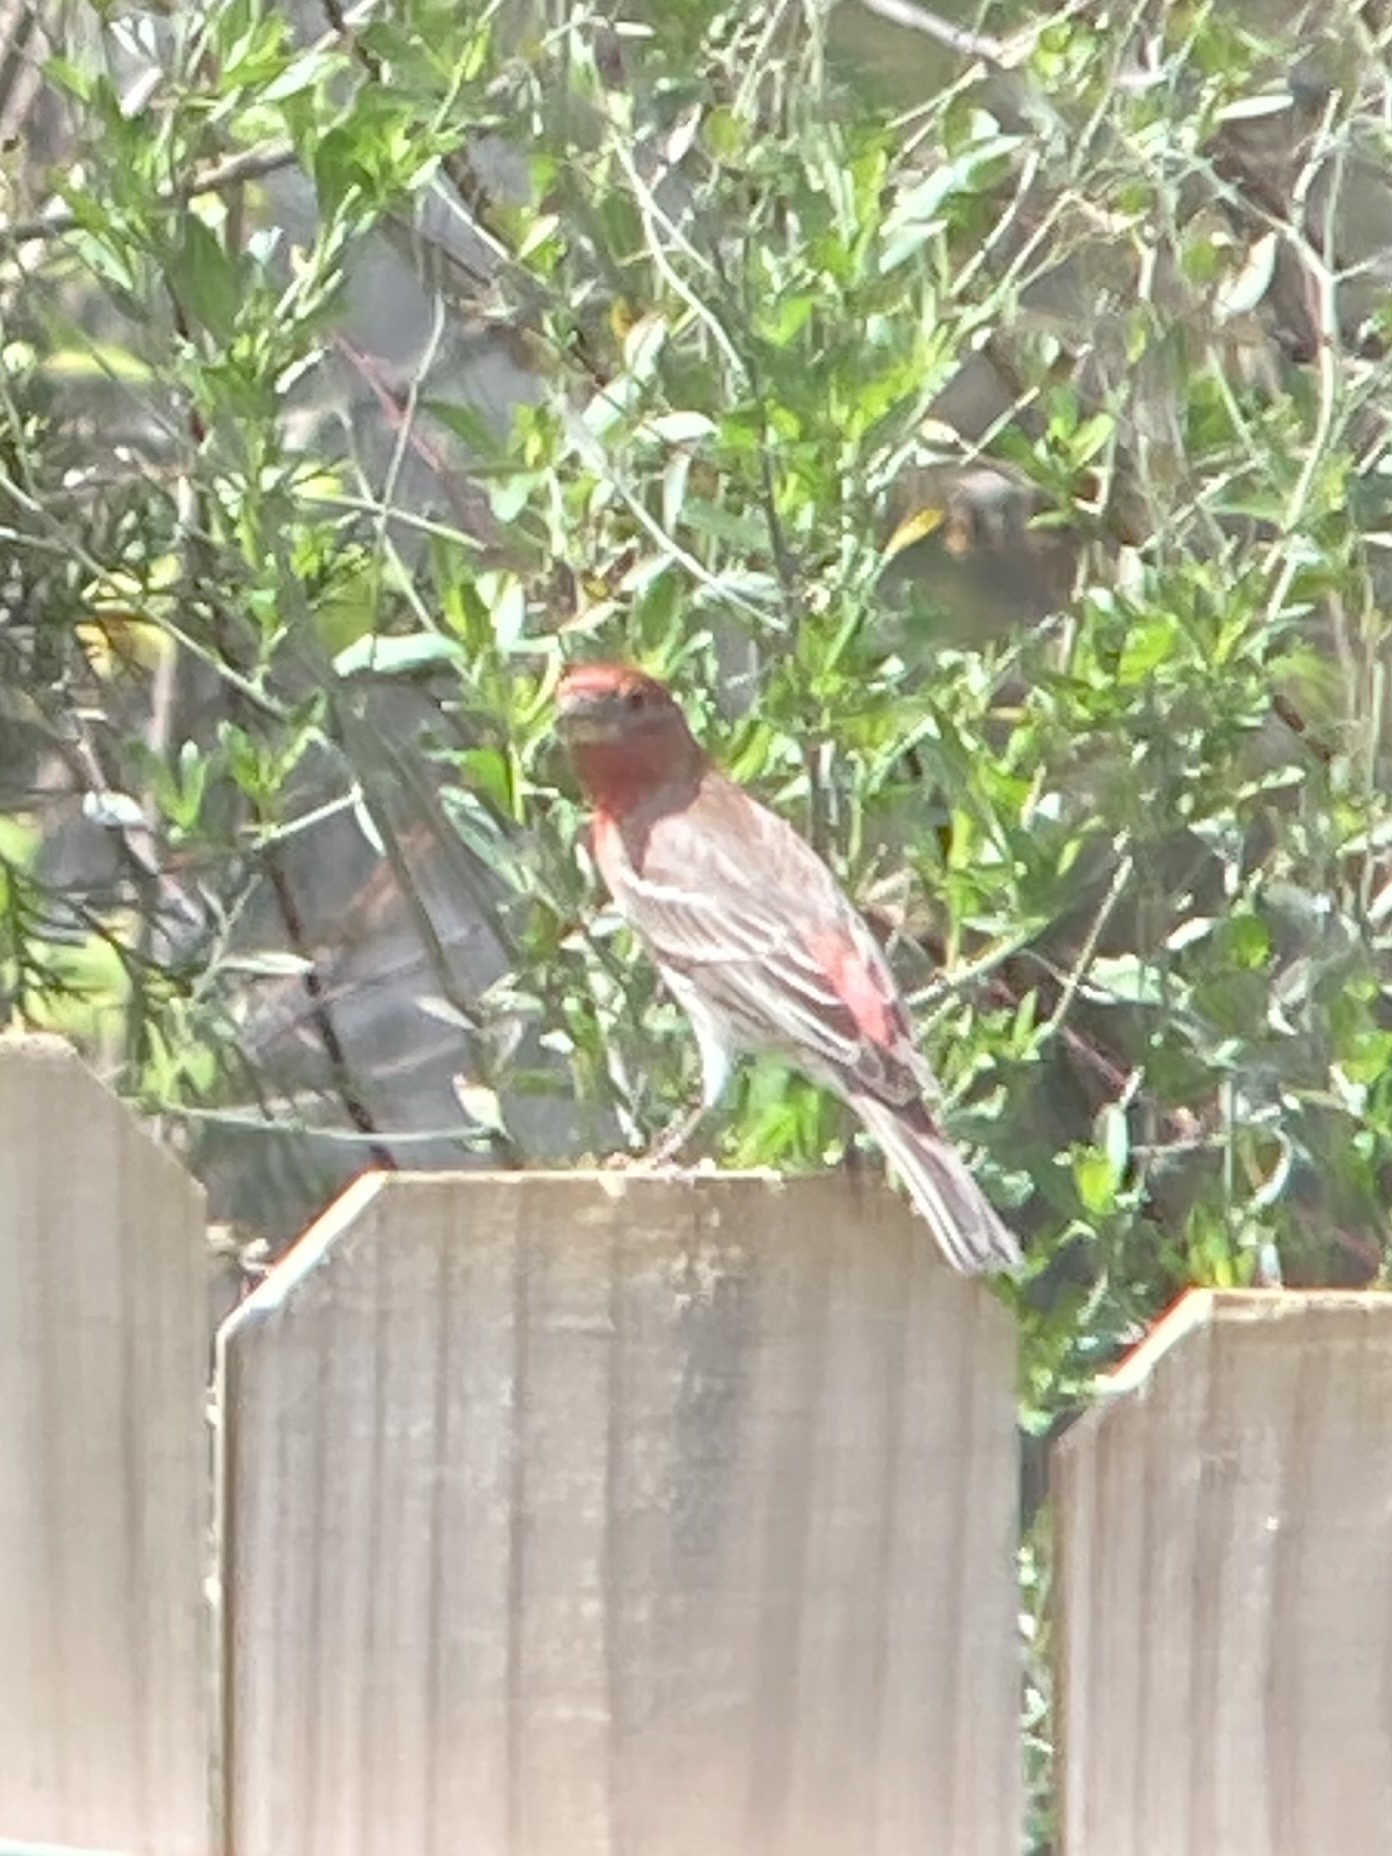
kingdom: Animalia
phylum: Chordata
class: Aves
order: Passeriformes
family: Fringillidae
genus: Haemorhous
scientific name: Haemorhous mexicanus
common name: House finch
